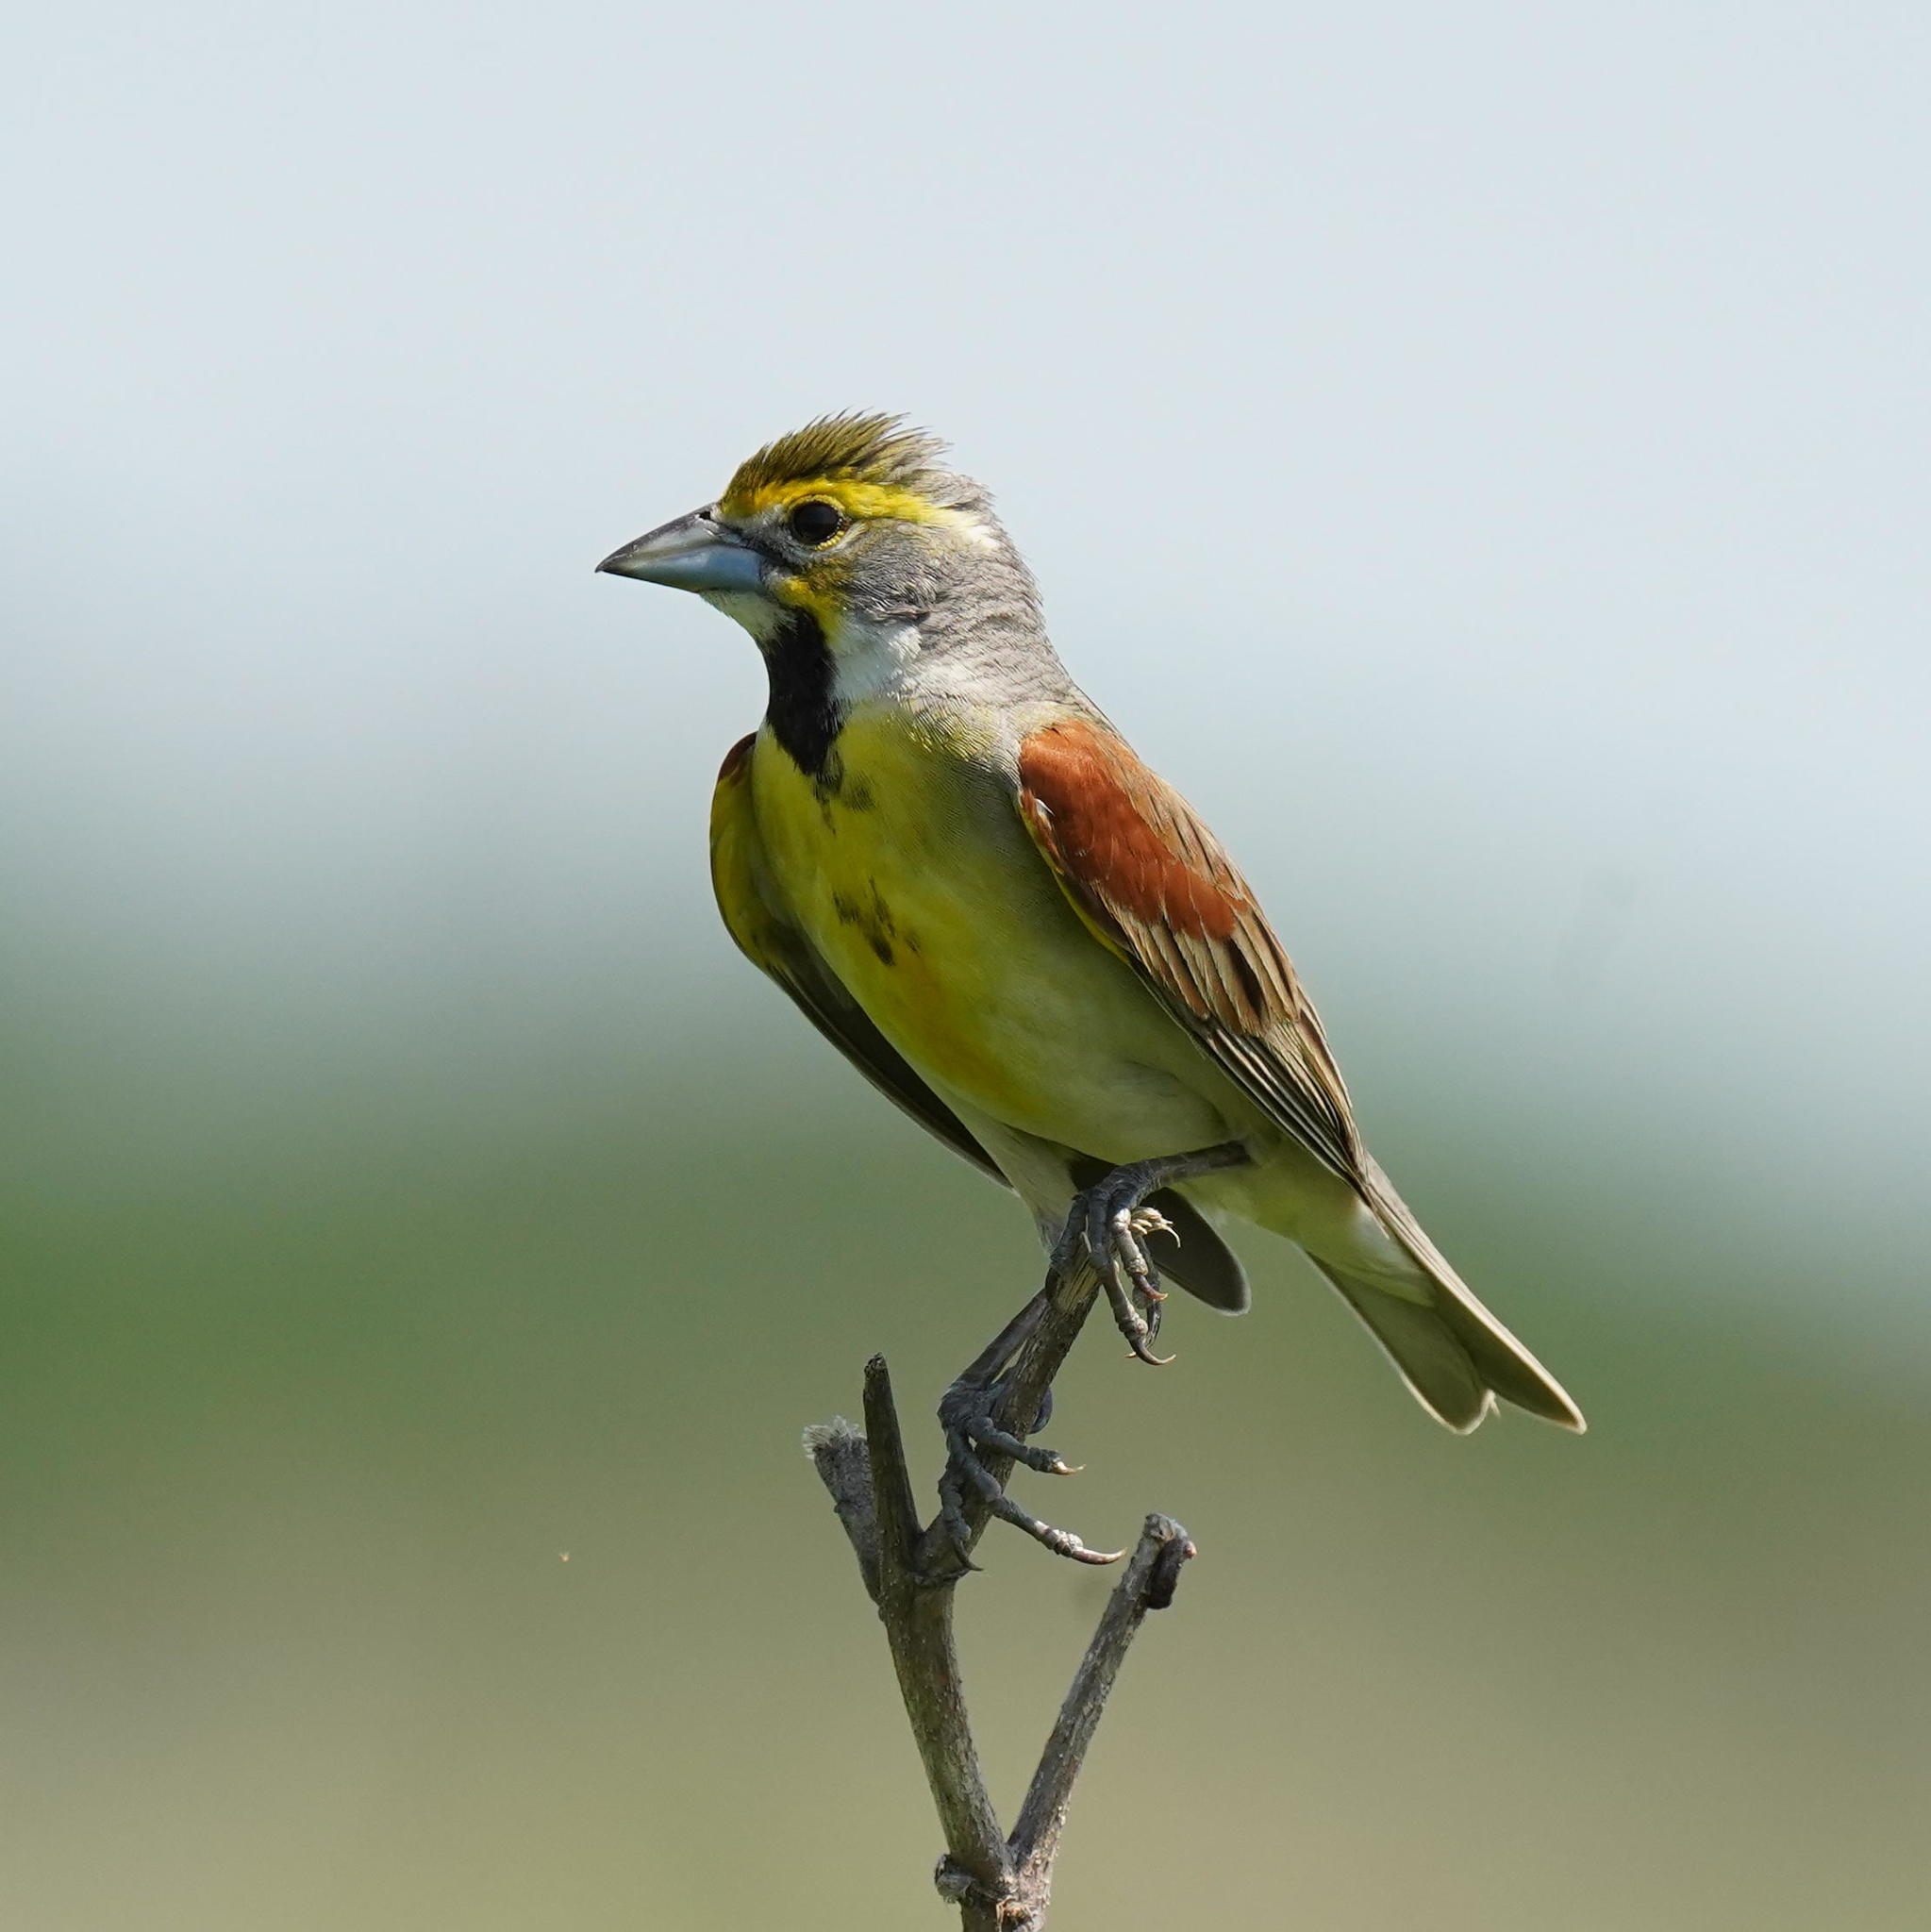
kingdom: Animalia
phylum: Chordata
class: Aves
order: Passeriformes
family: Cardinalidae
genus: Spiza
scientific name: Spiza americana
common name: Dickcissel
